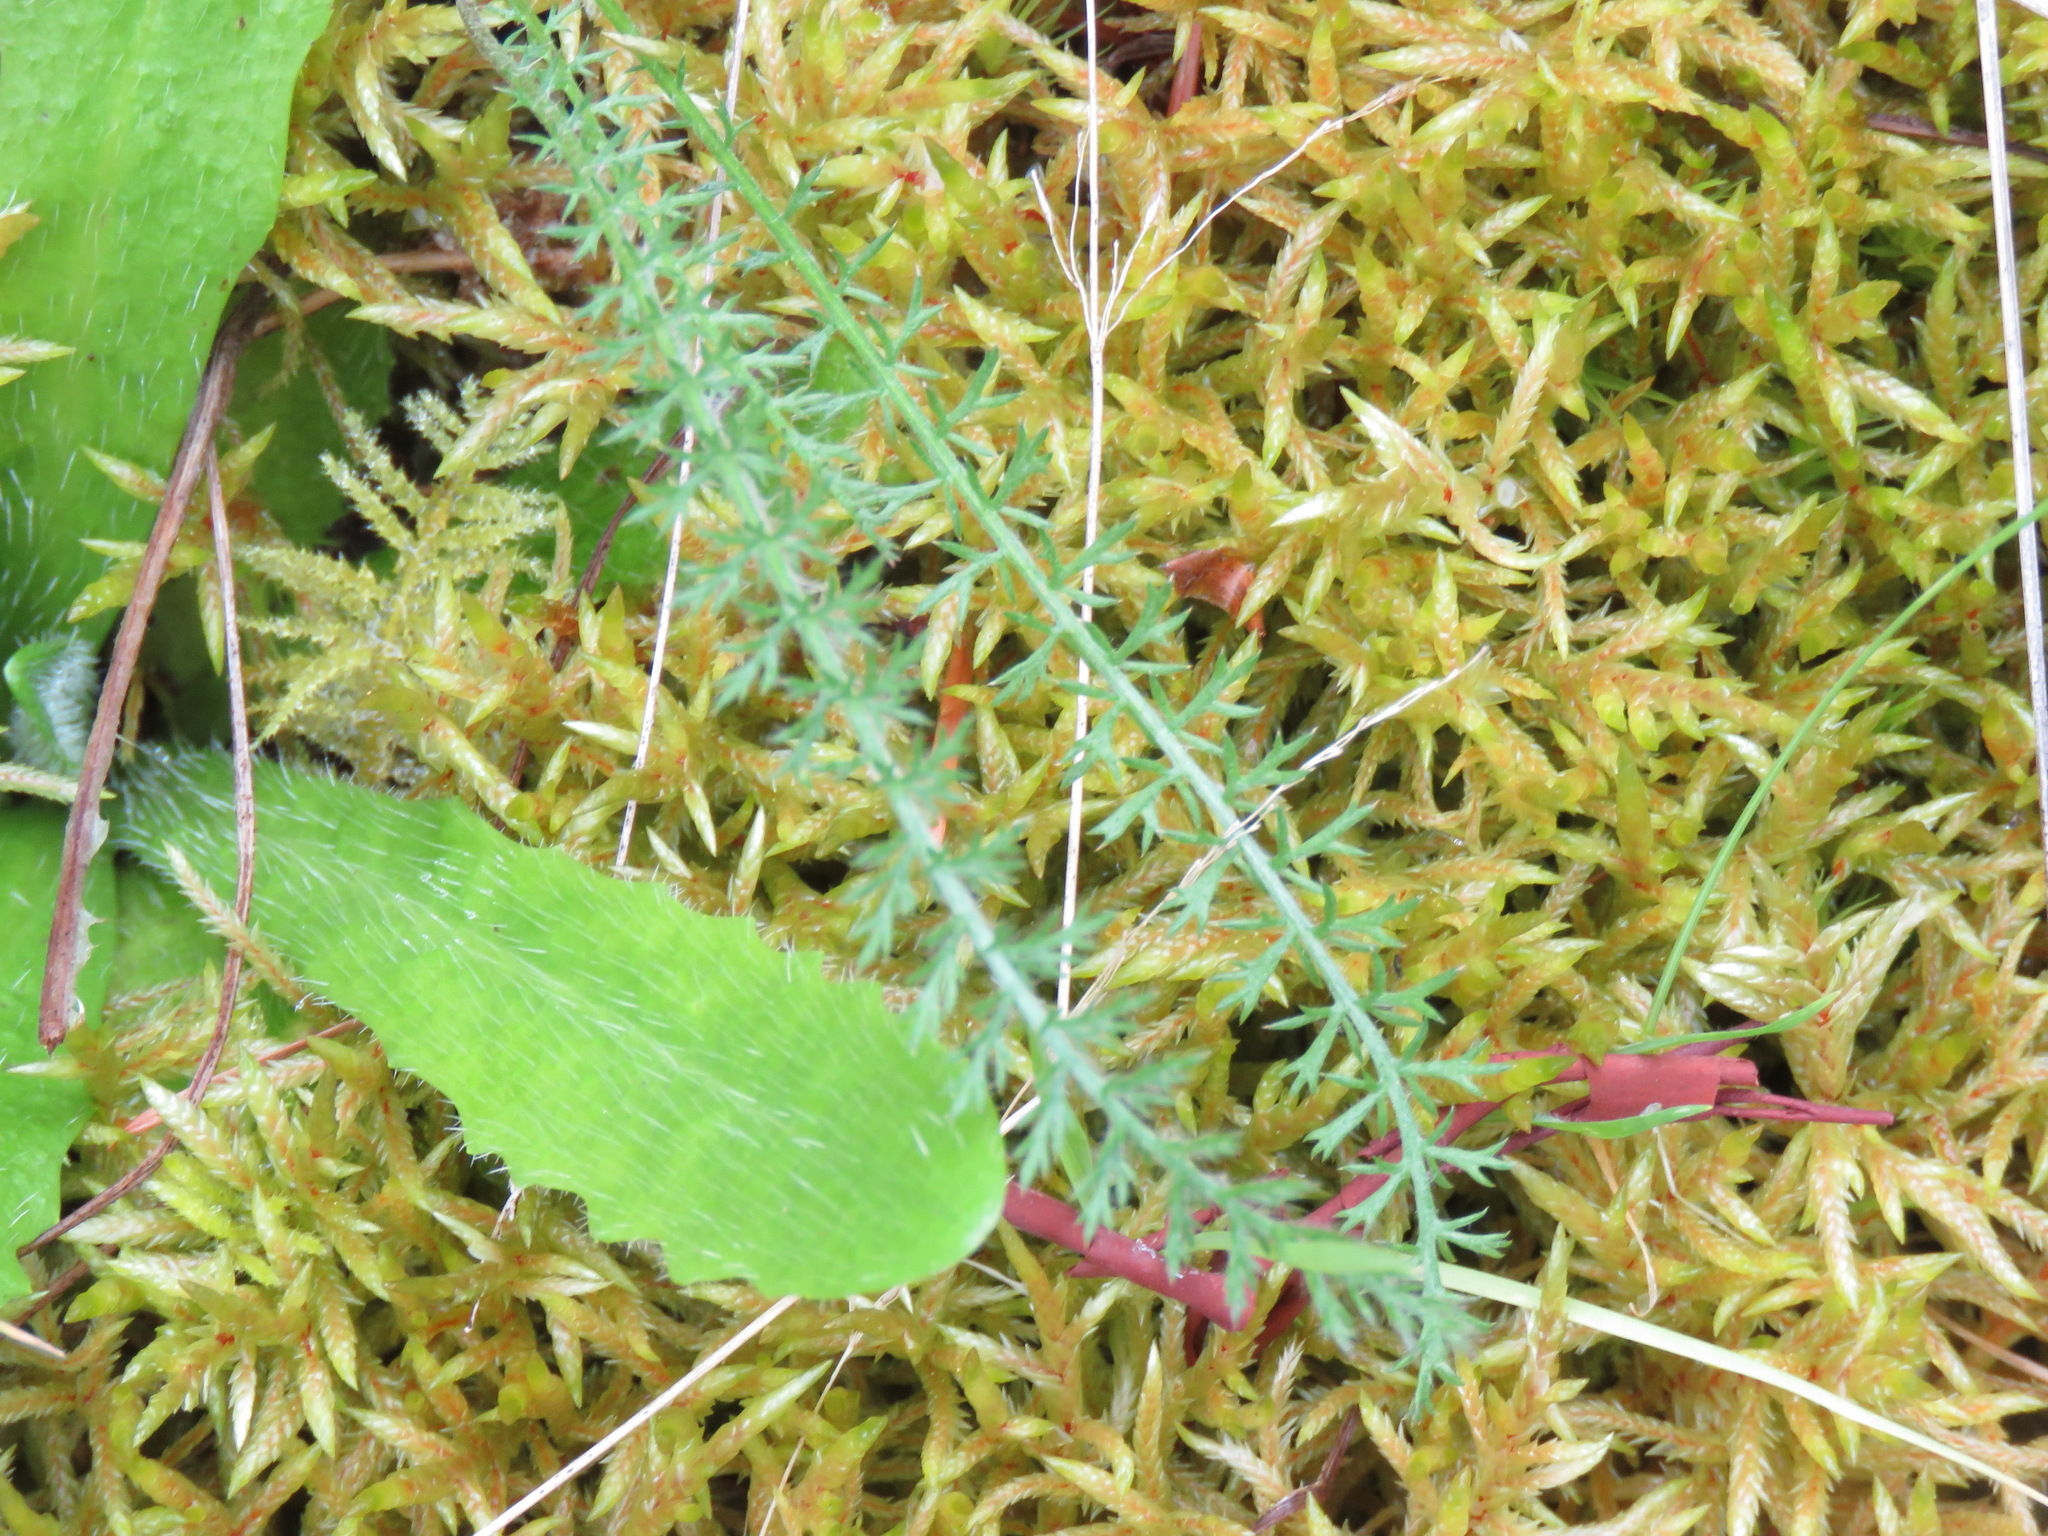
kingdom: Plantae
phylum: Tracheophyta
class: Magnoliopsida
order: Asterales
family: Asteraceae
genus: Achillea
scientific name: Achillea millefolium
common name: Yarrow
